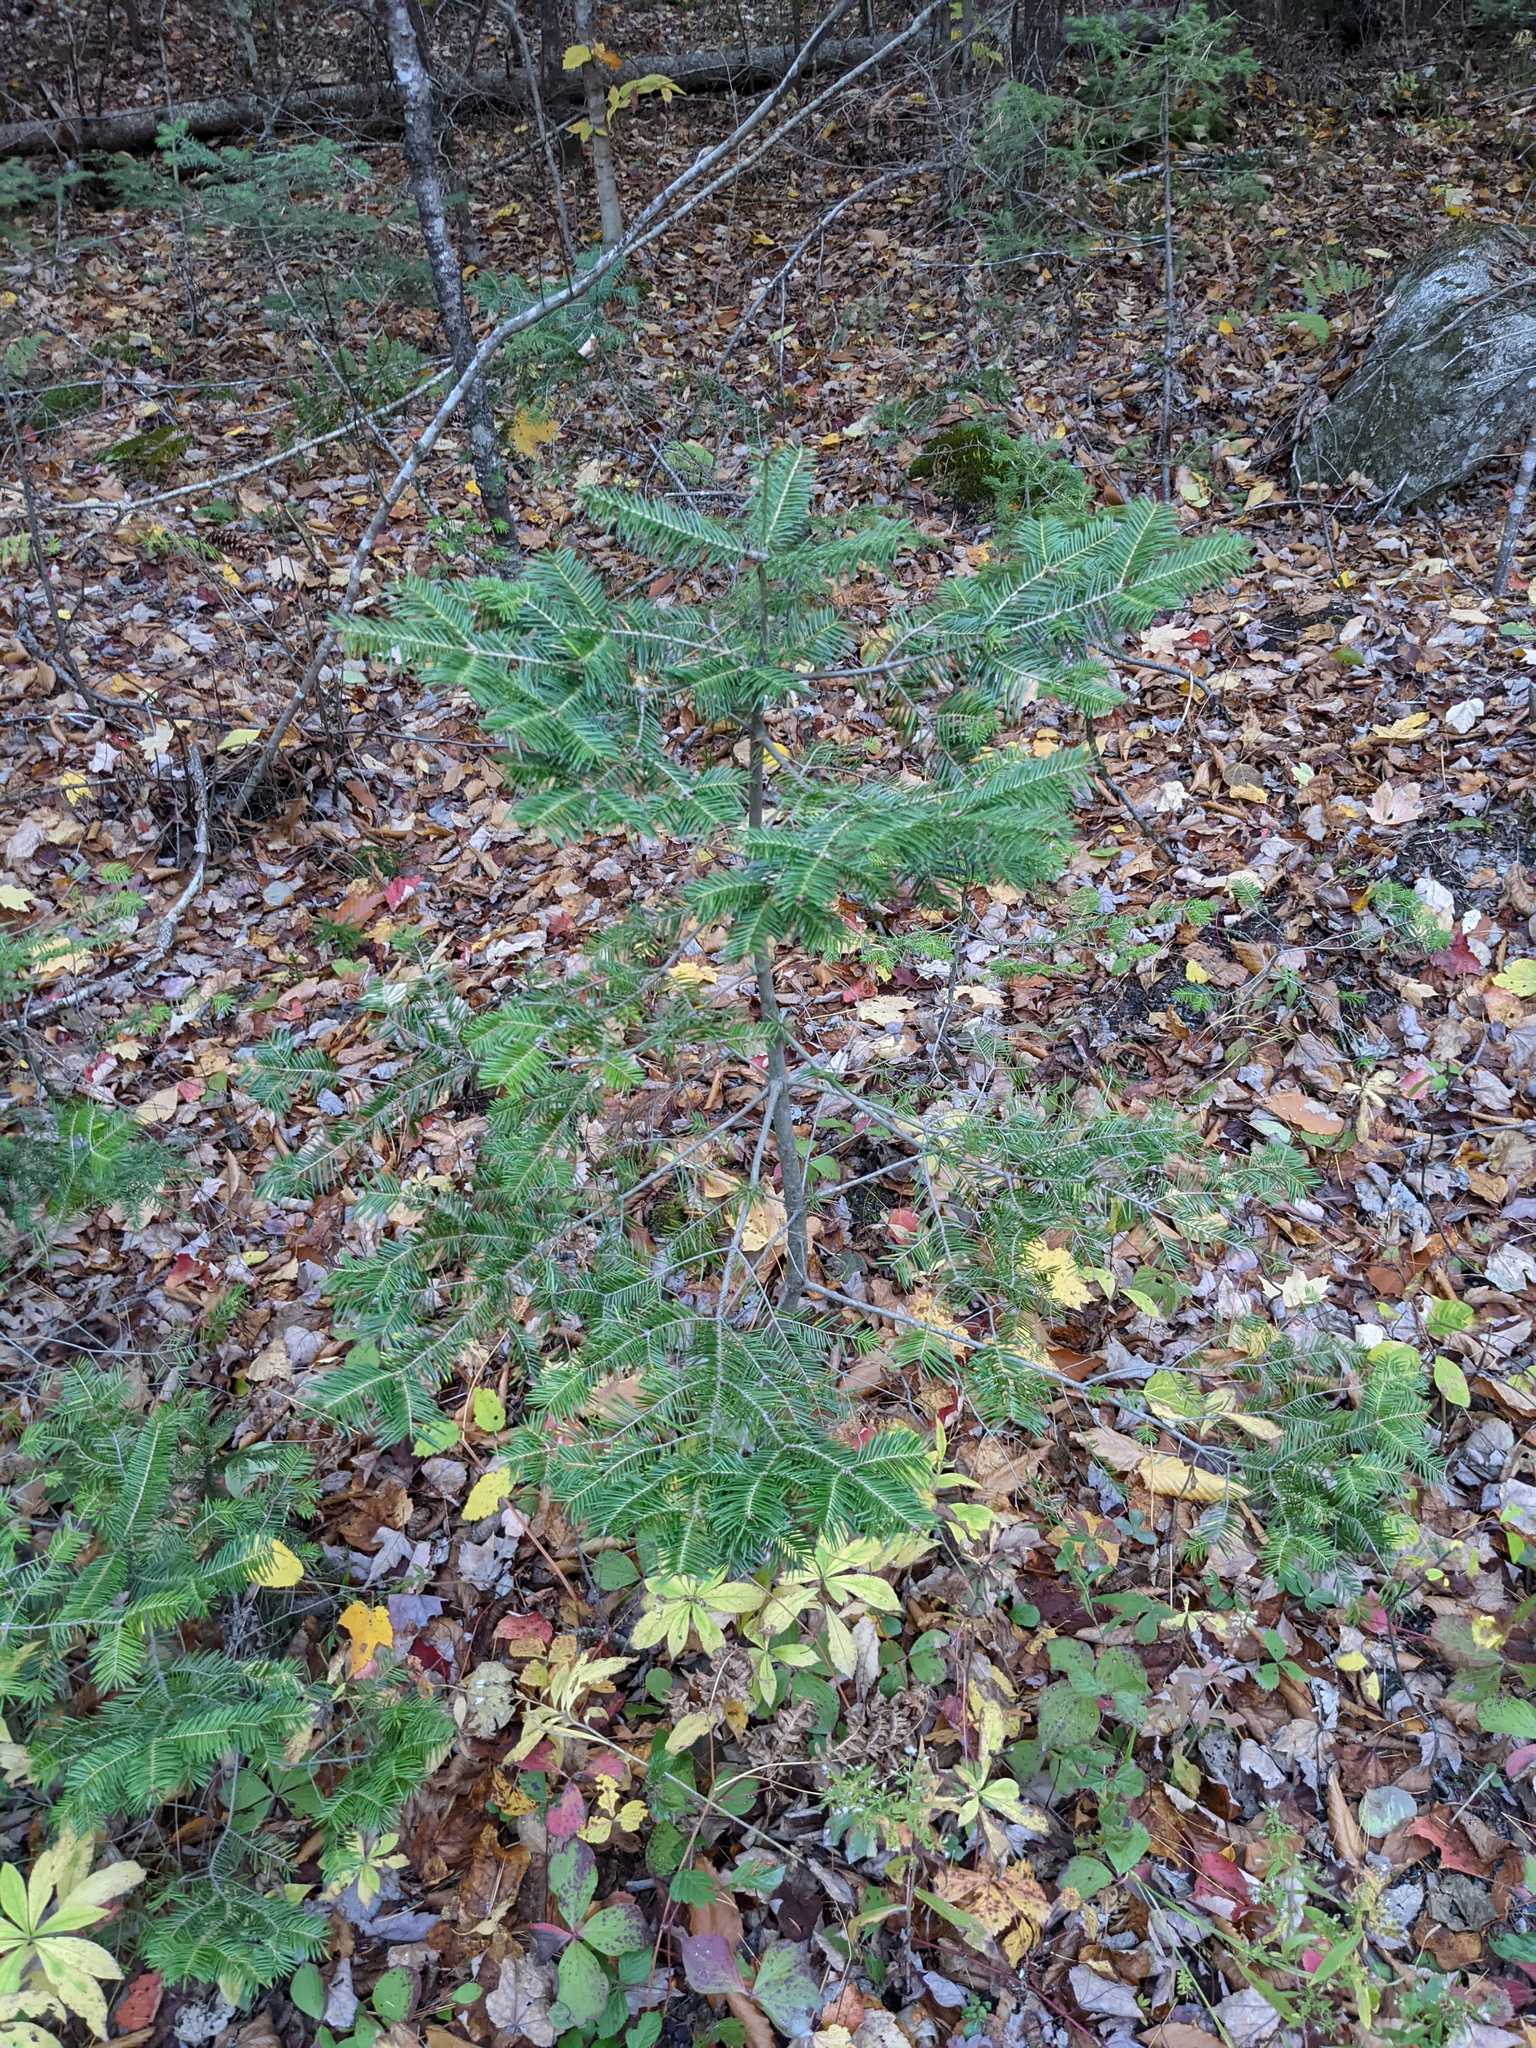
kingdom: Plantae
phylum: Tracheophyta
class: Pinopsida
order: Pinales
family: Pinaceae
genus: Abies
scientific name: Abies balsamea
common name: Balsam fir
